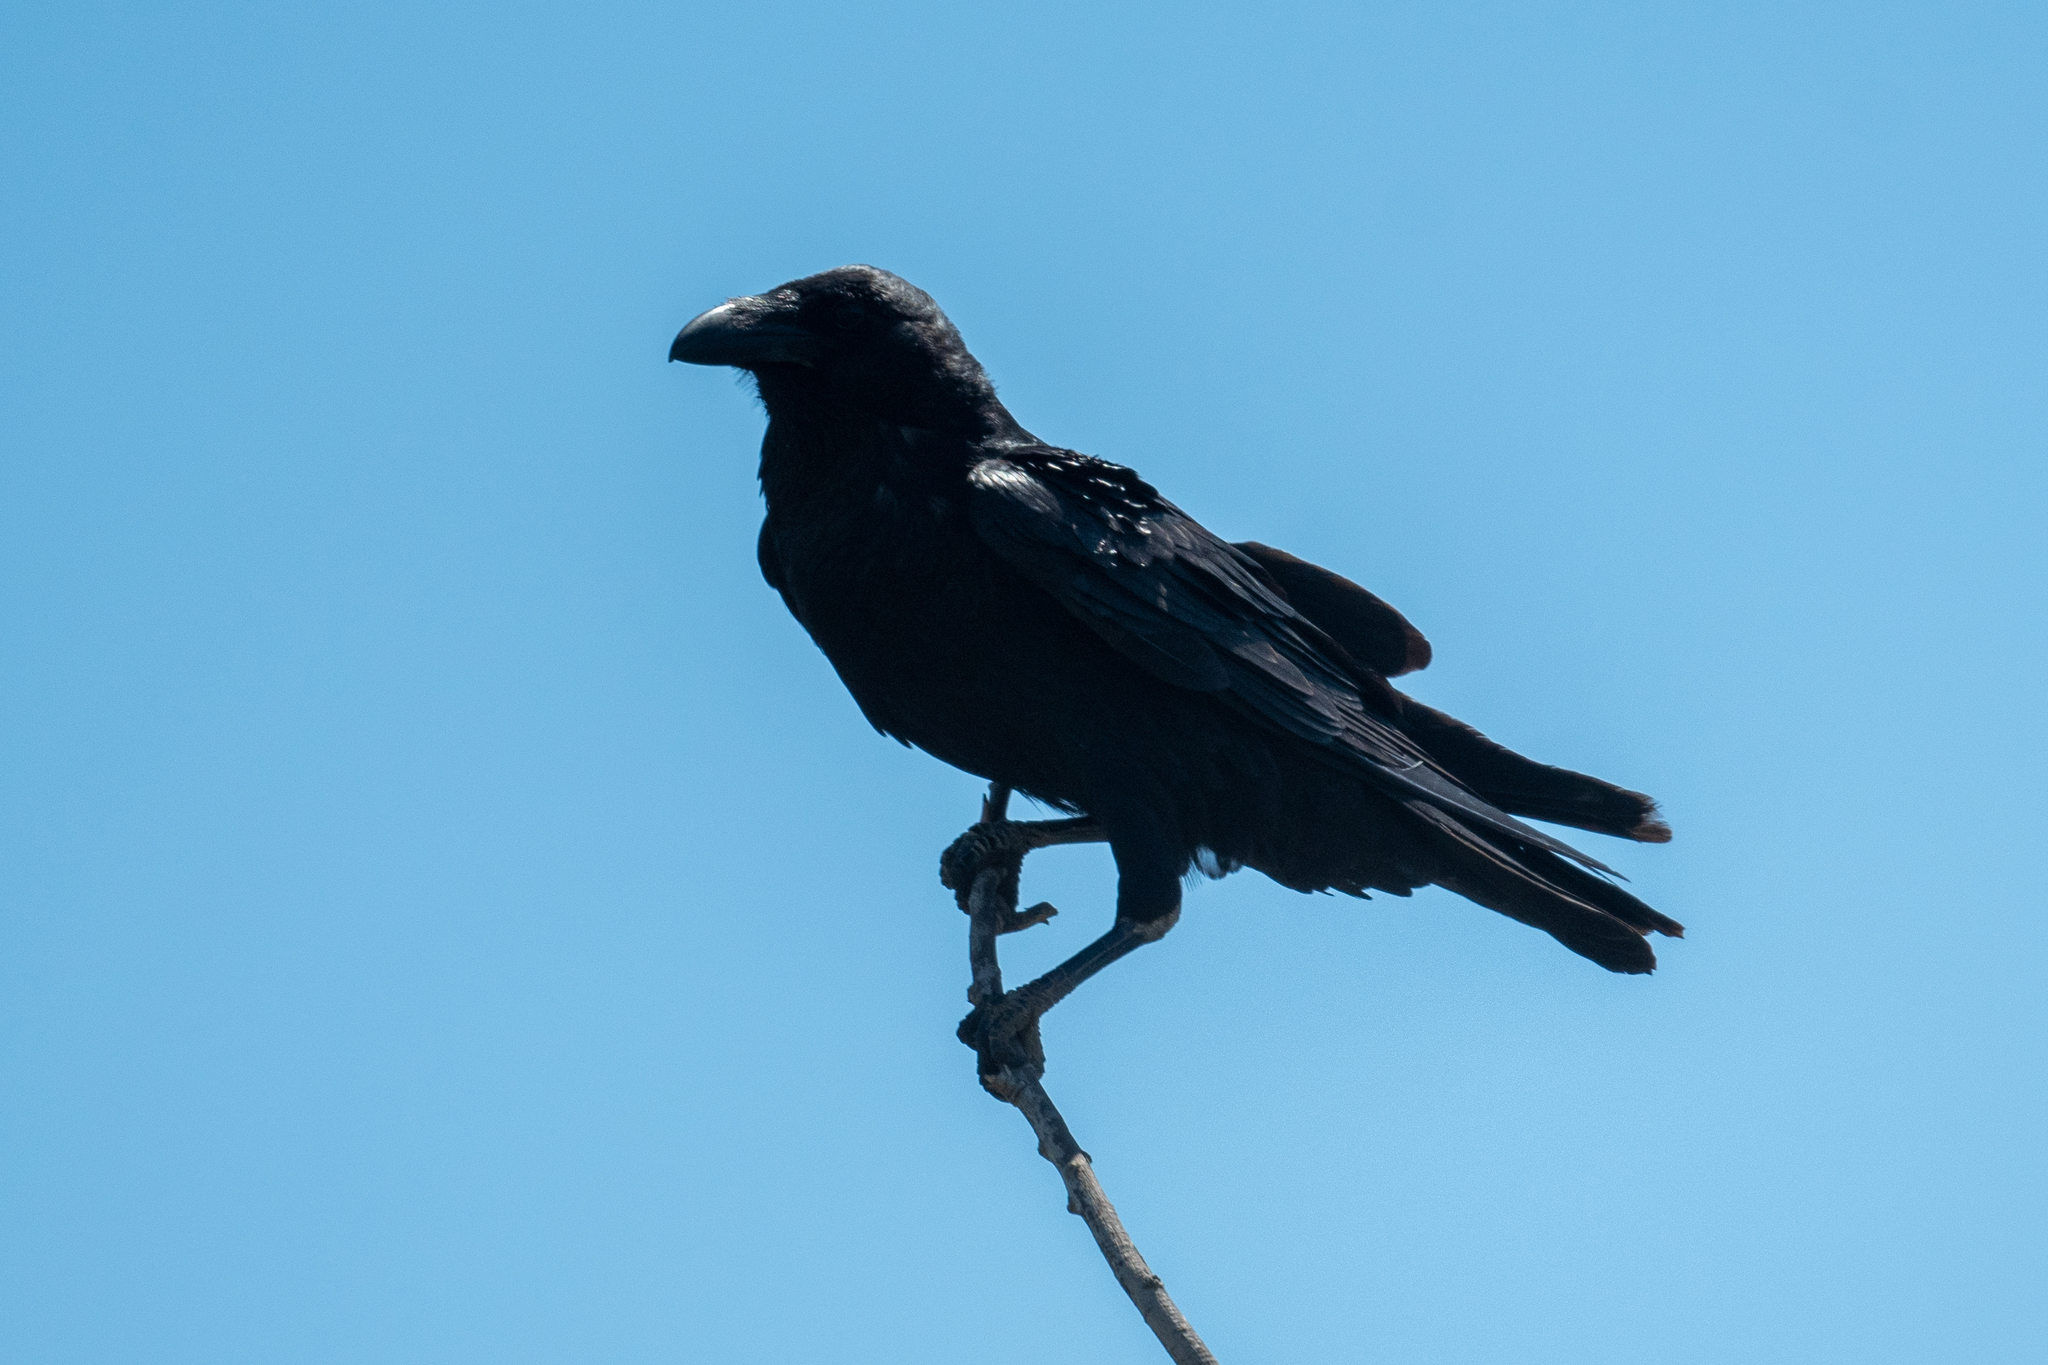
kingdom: Animalia
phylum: Chordata
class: Aves
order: Passeriformes
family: Corvidae
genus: Corvus
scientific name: Corvus corax
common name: Common raven
